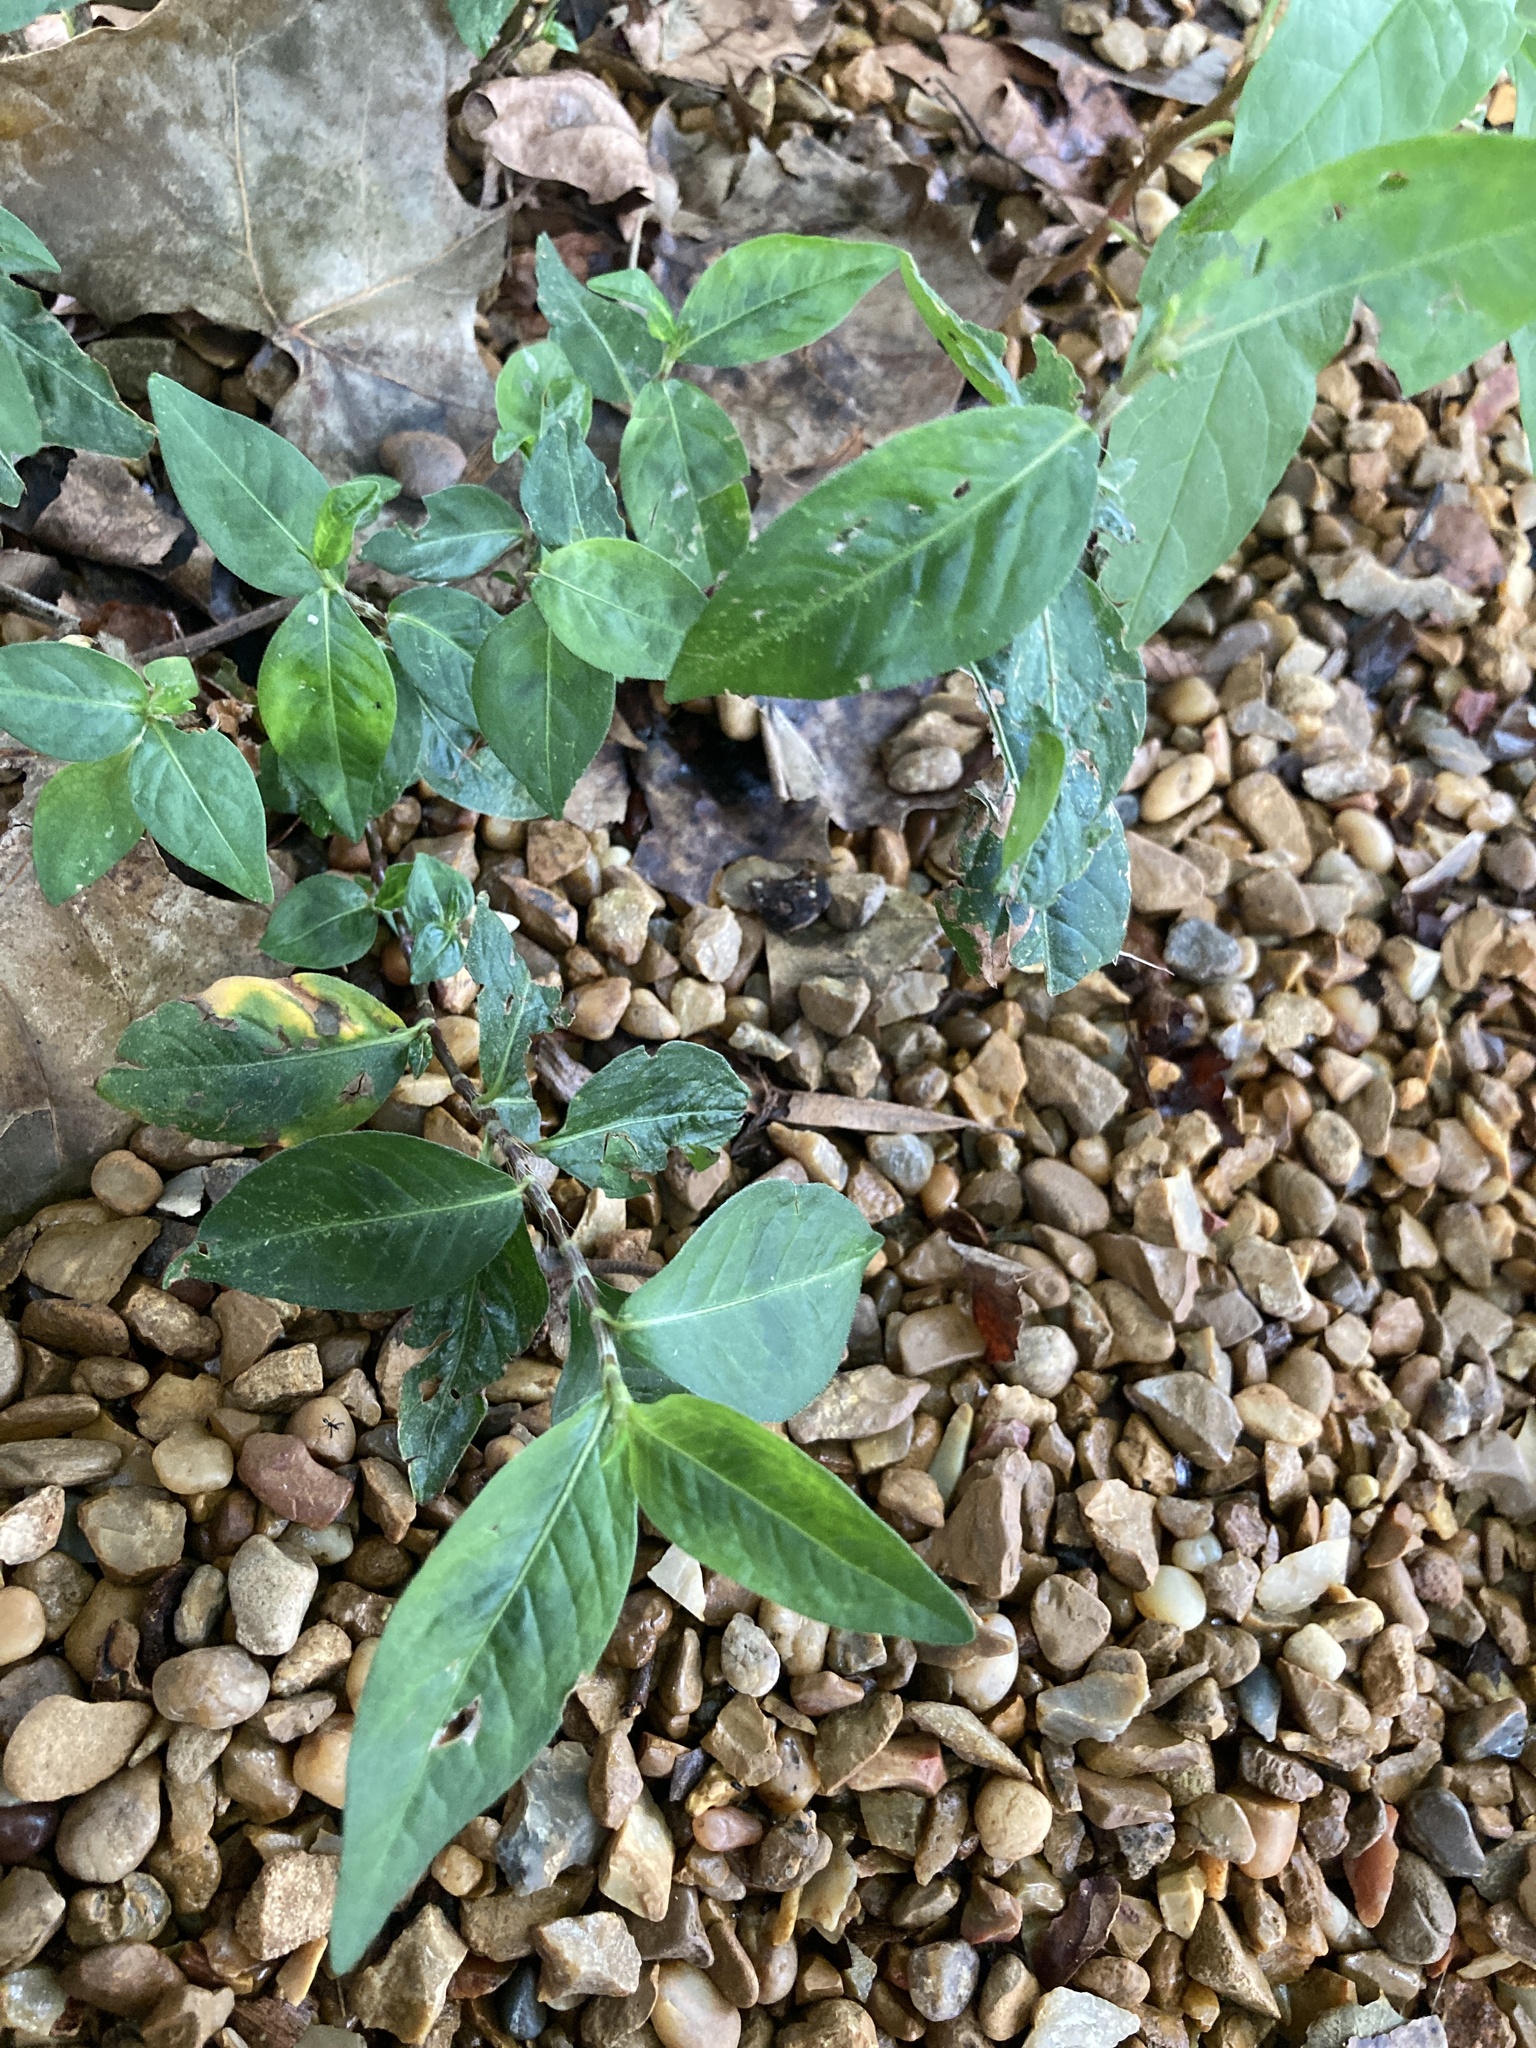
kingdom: Plantae
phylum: Tracheophyta
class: Magnoliopsida
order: Caryophyllales
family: Polygonaceae
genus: Persicaria
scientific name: Persicaria longiseta
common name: Bristly lady's-thumb
